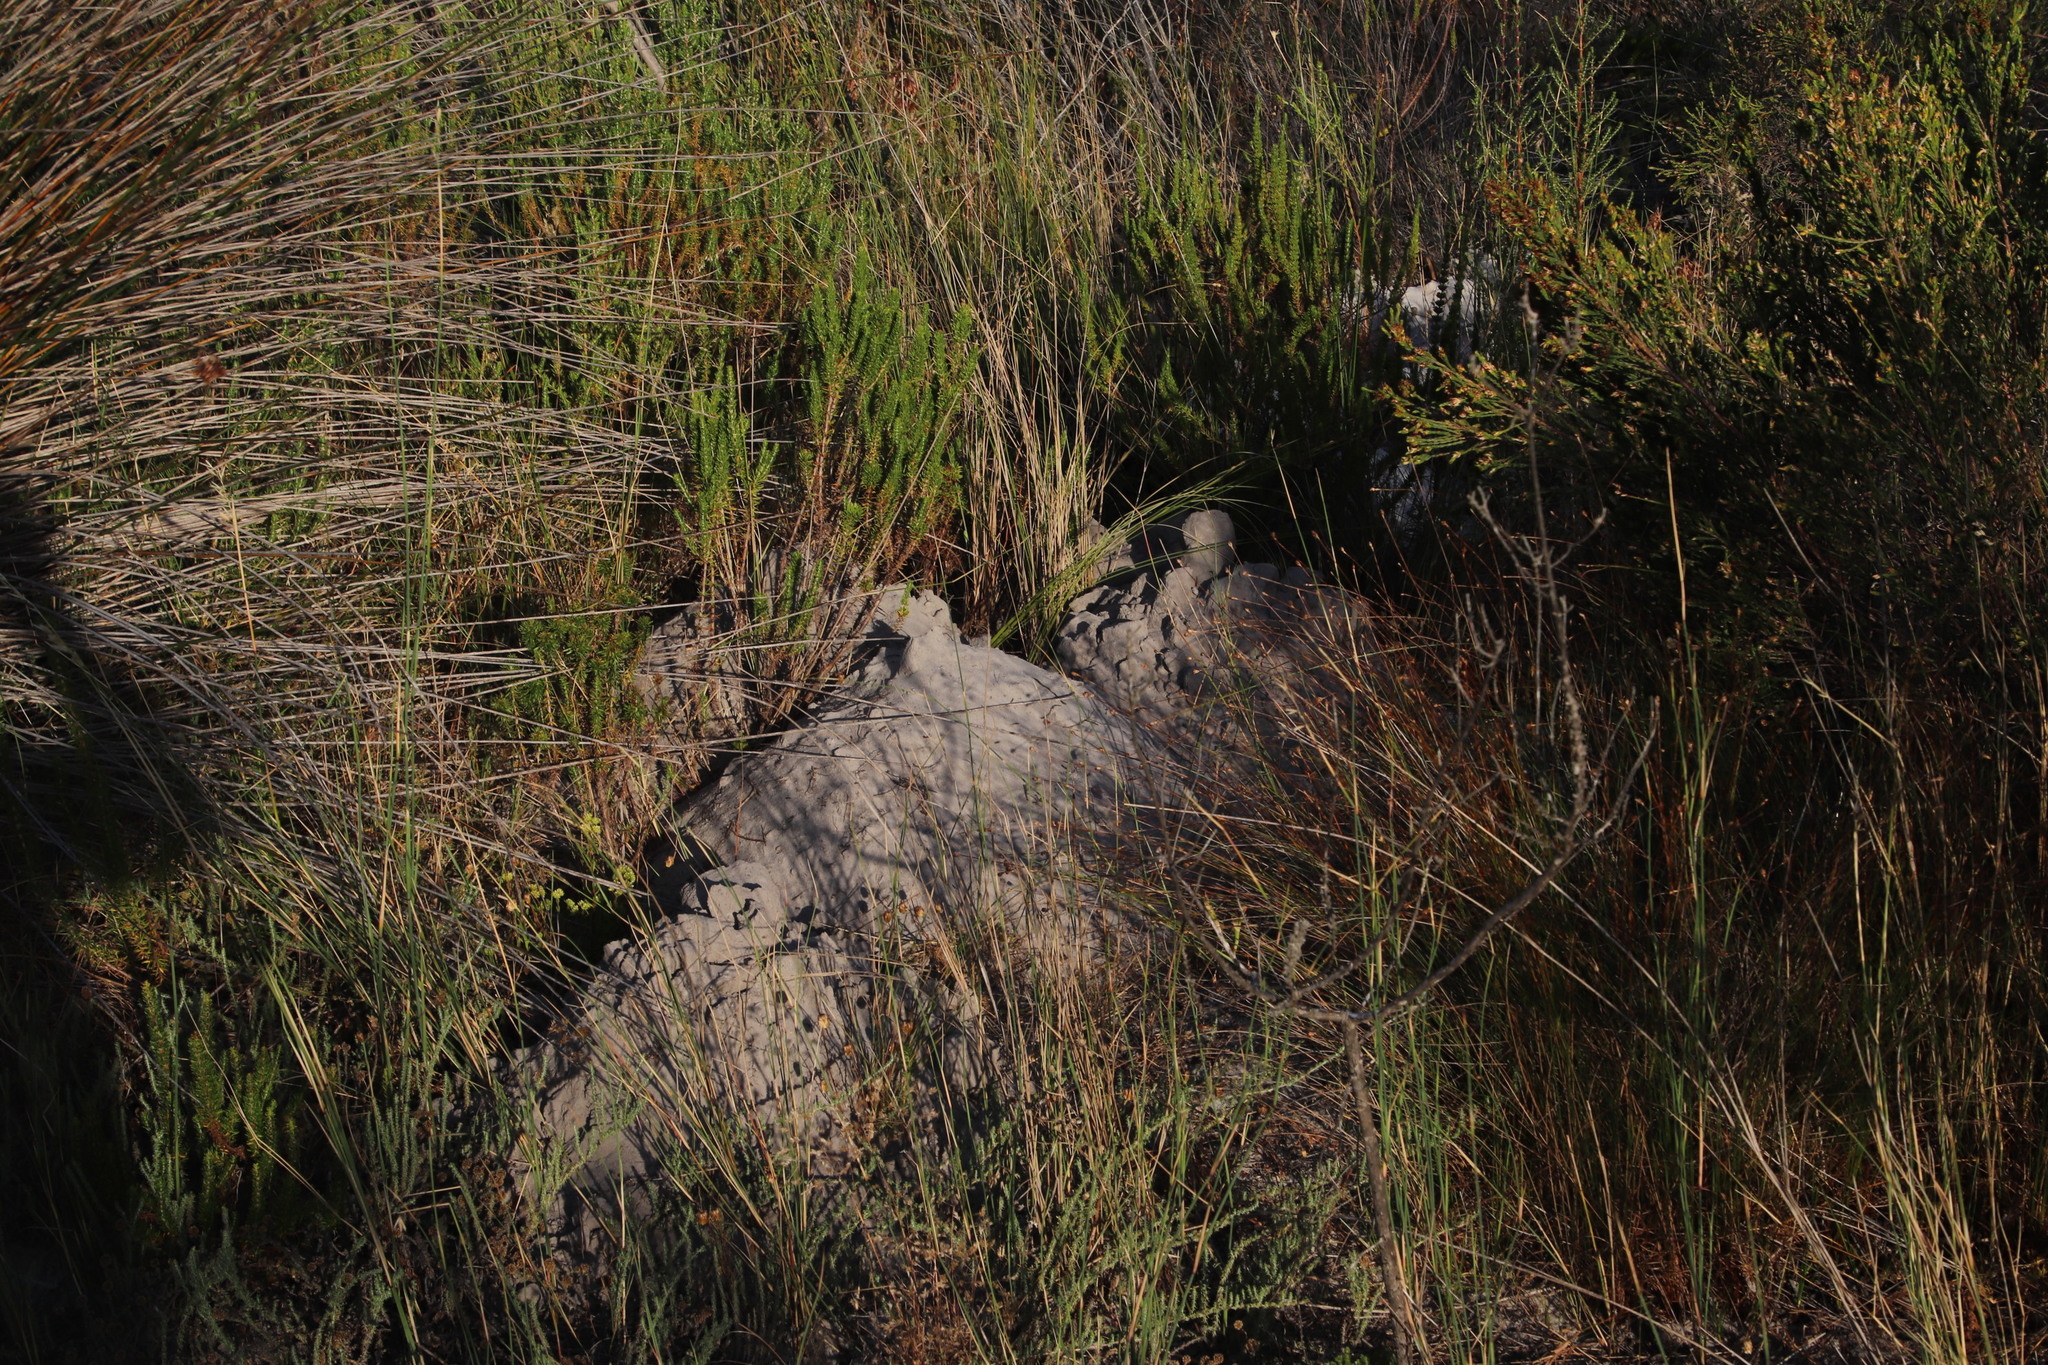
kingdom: Animalia
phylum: Chordata
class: Mammalia
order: Rodentia
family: Bathyergidae
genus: Bathyergus
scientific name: Bathyergus suillus
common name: Cape dune mole rat
